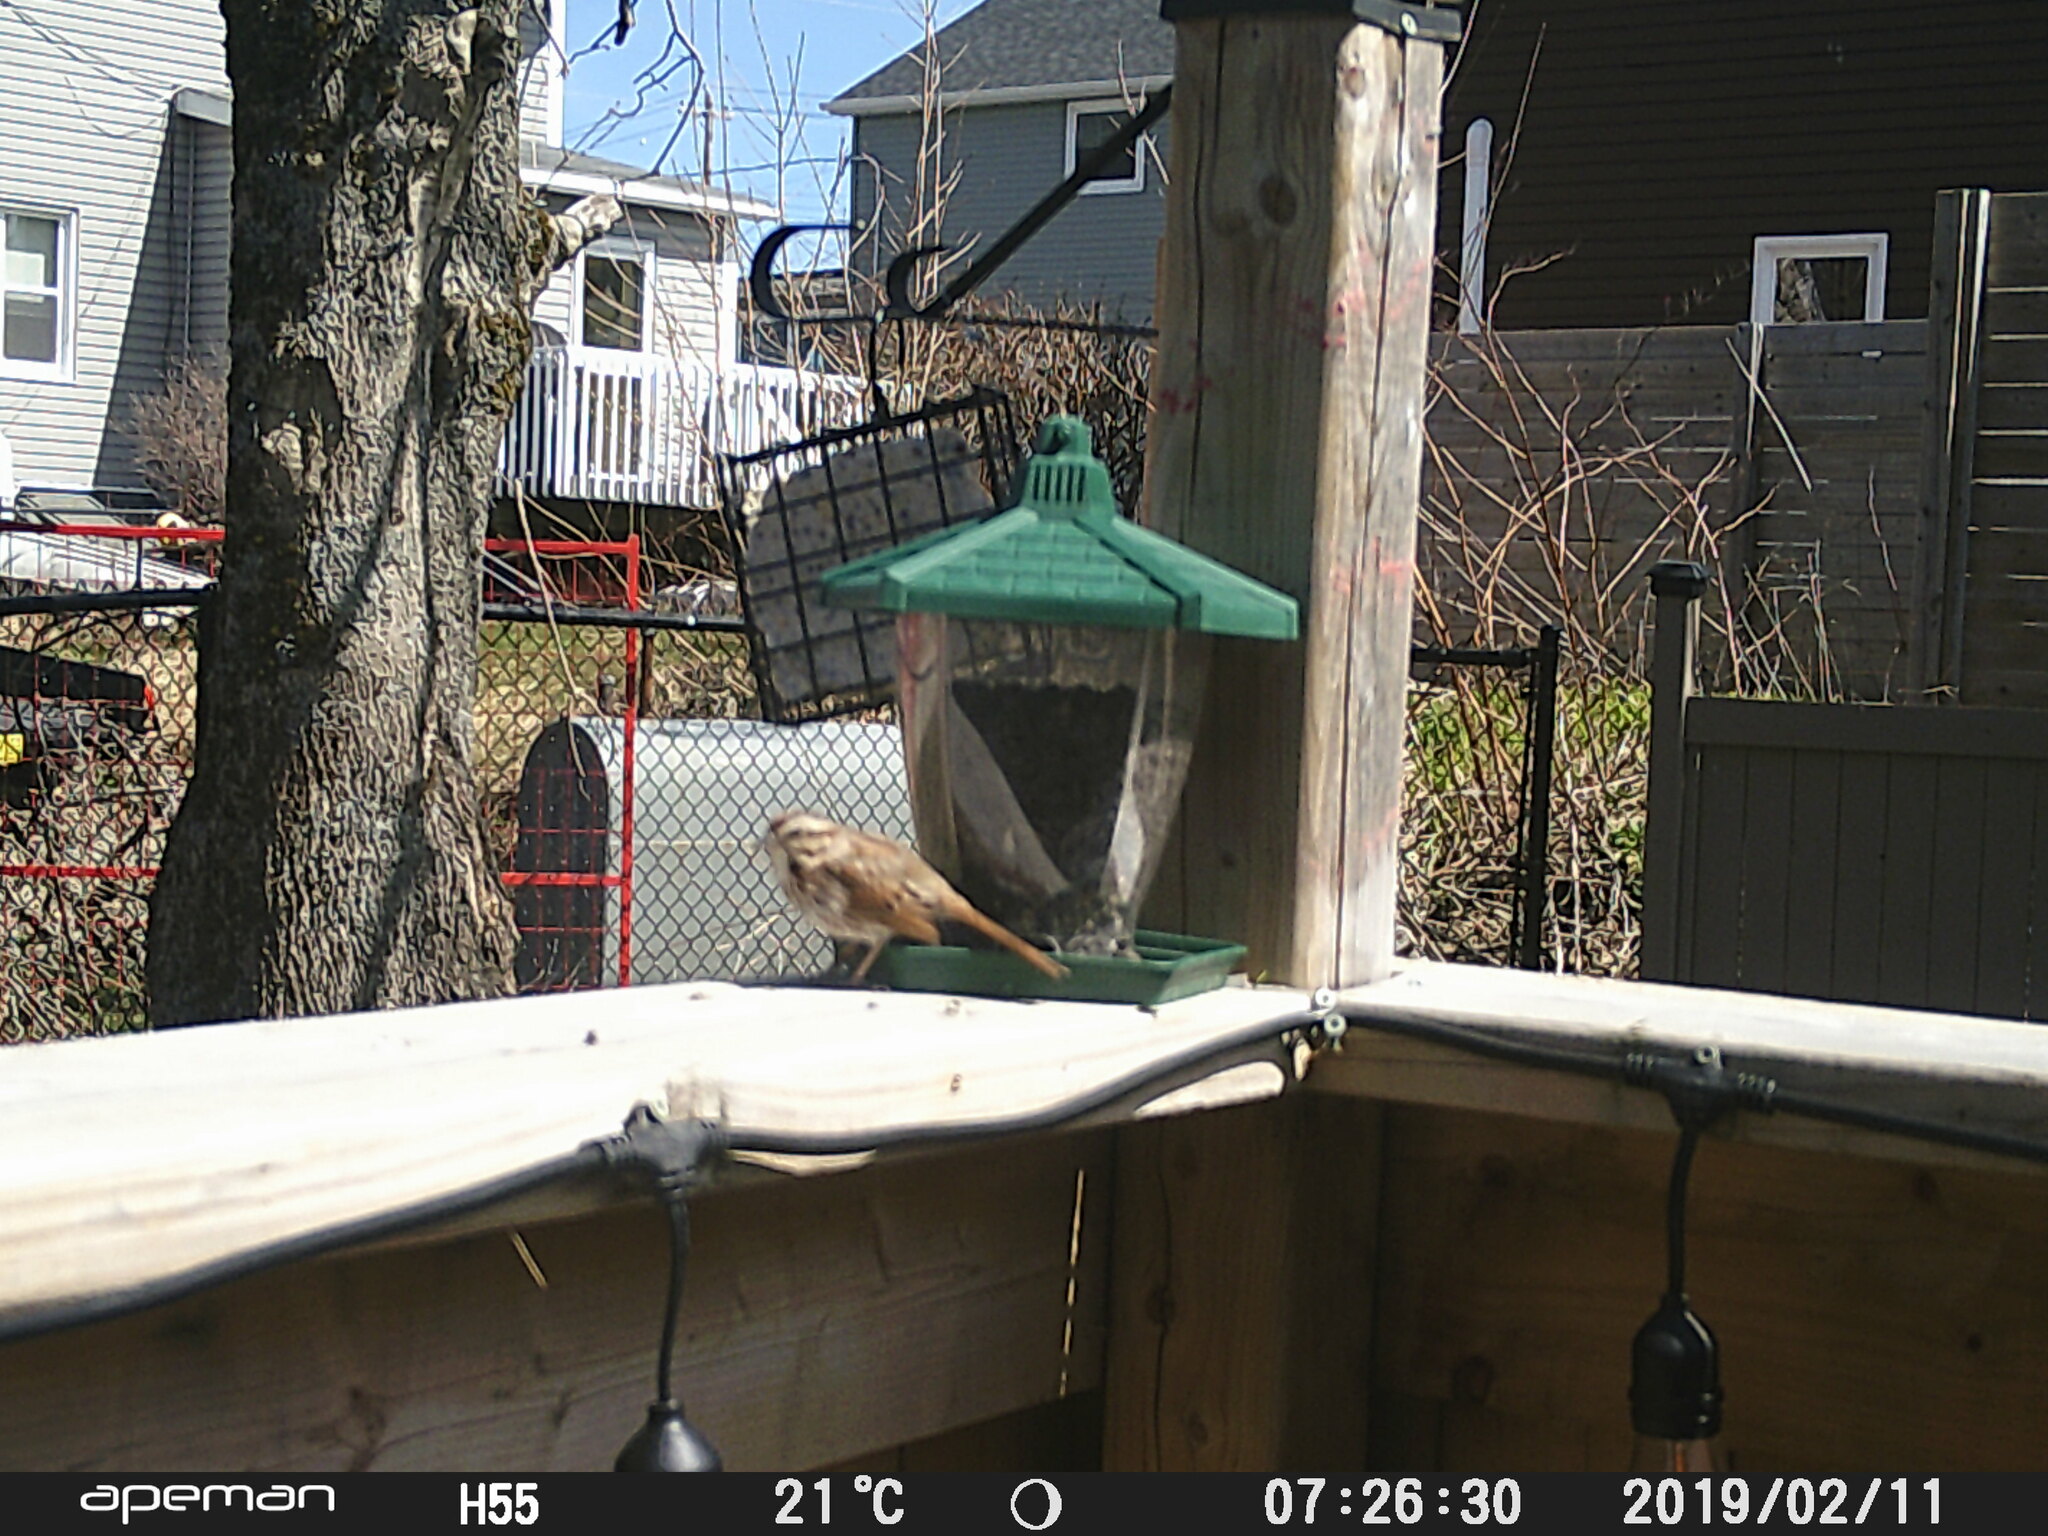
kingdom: Animalia
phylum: Chordata
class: Aves
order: Passeriformes
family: Passerellidae
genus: Melospiza
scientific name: Melospiza melodia
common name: Song sparrow
